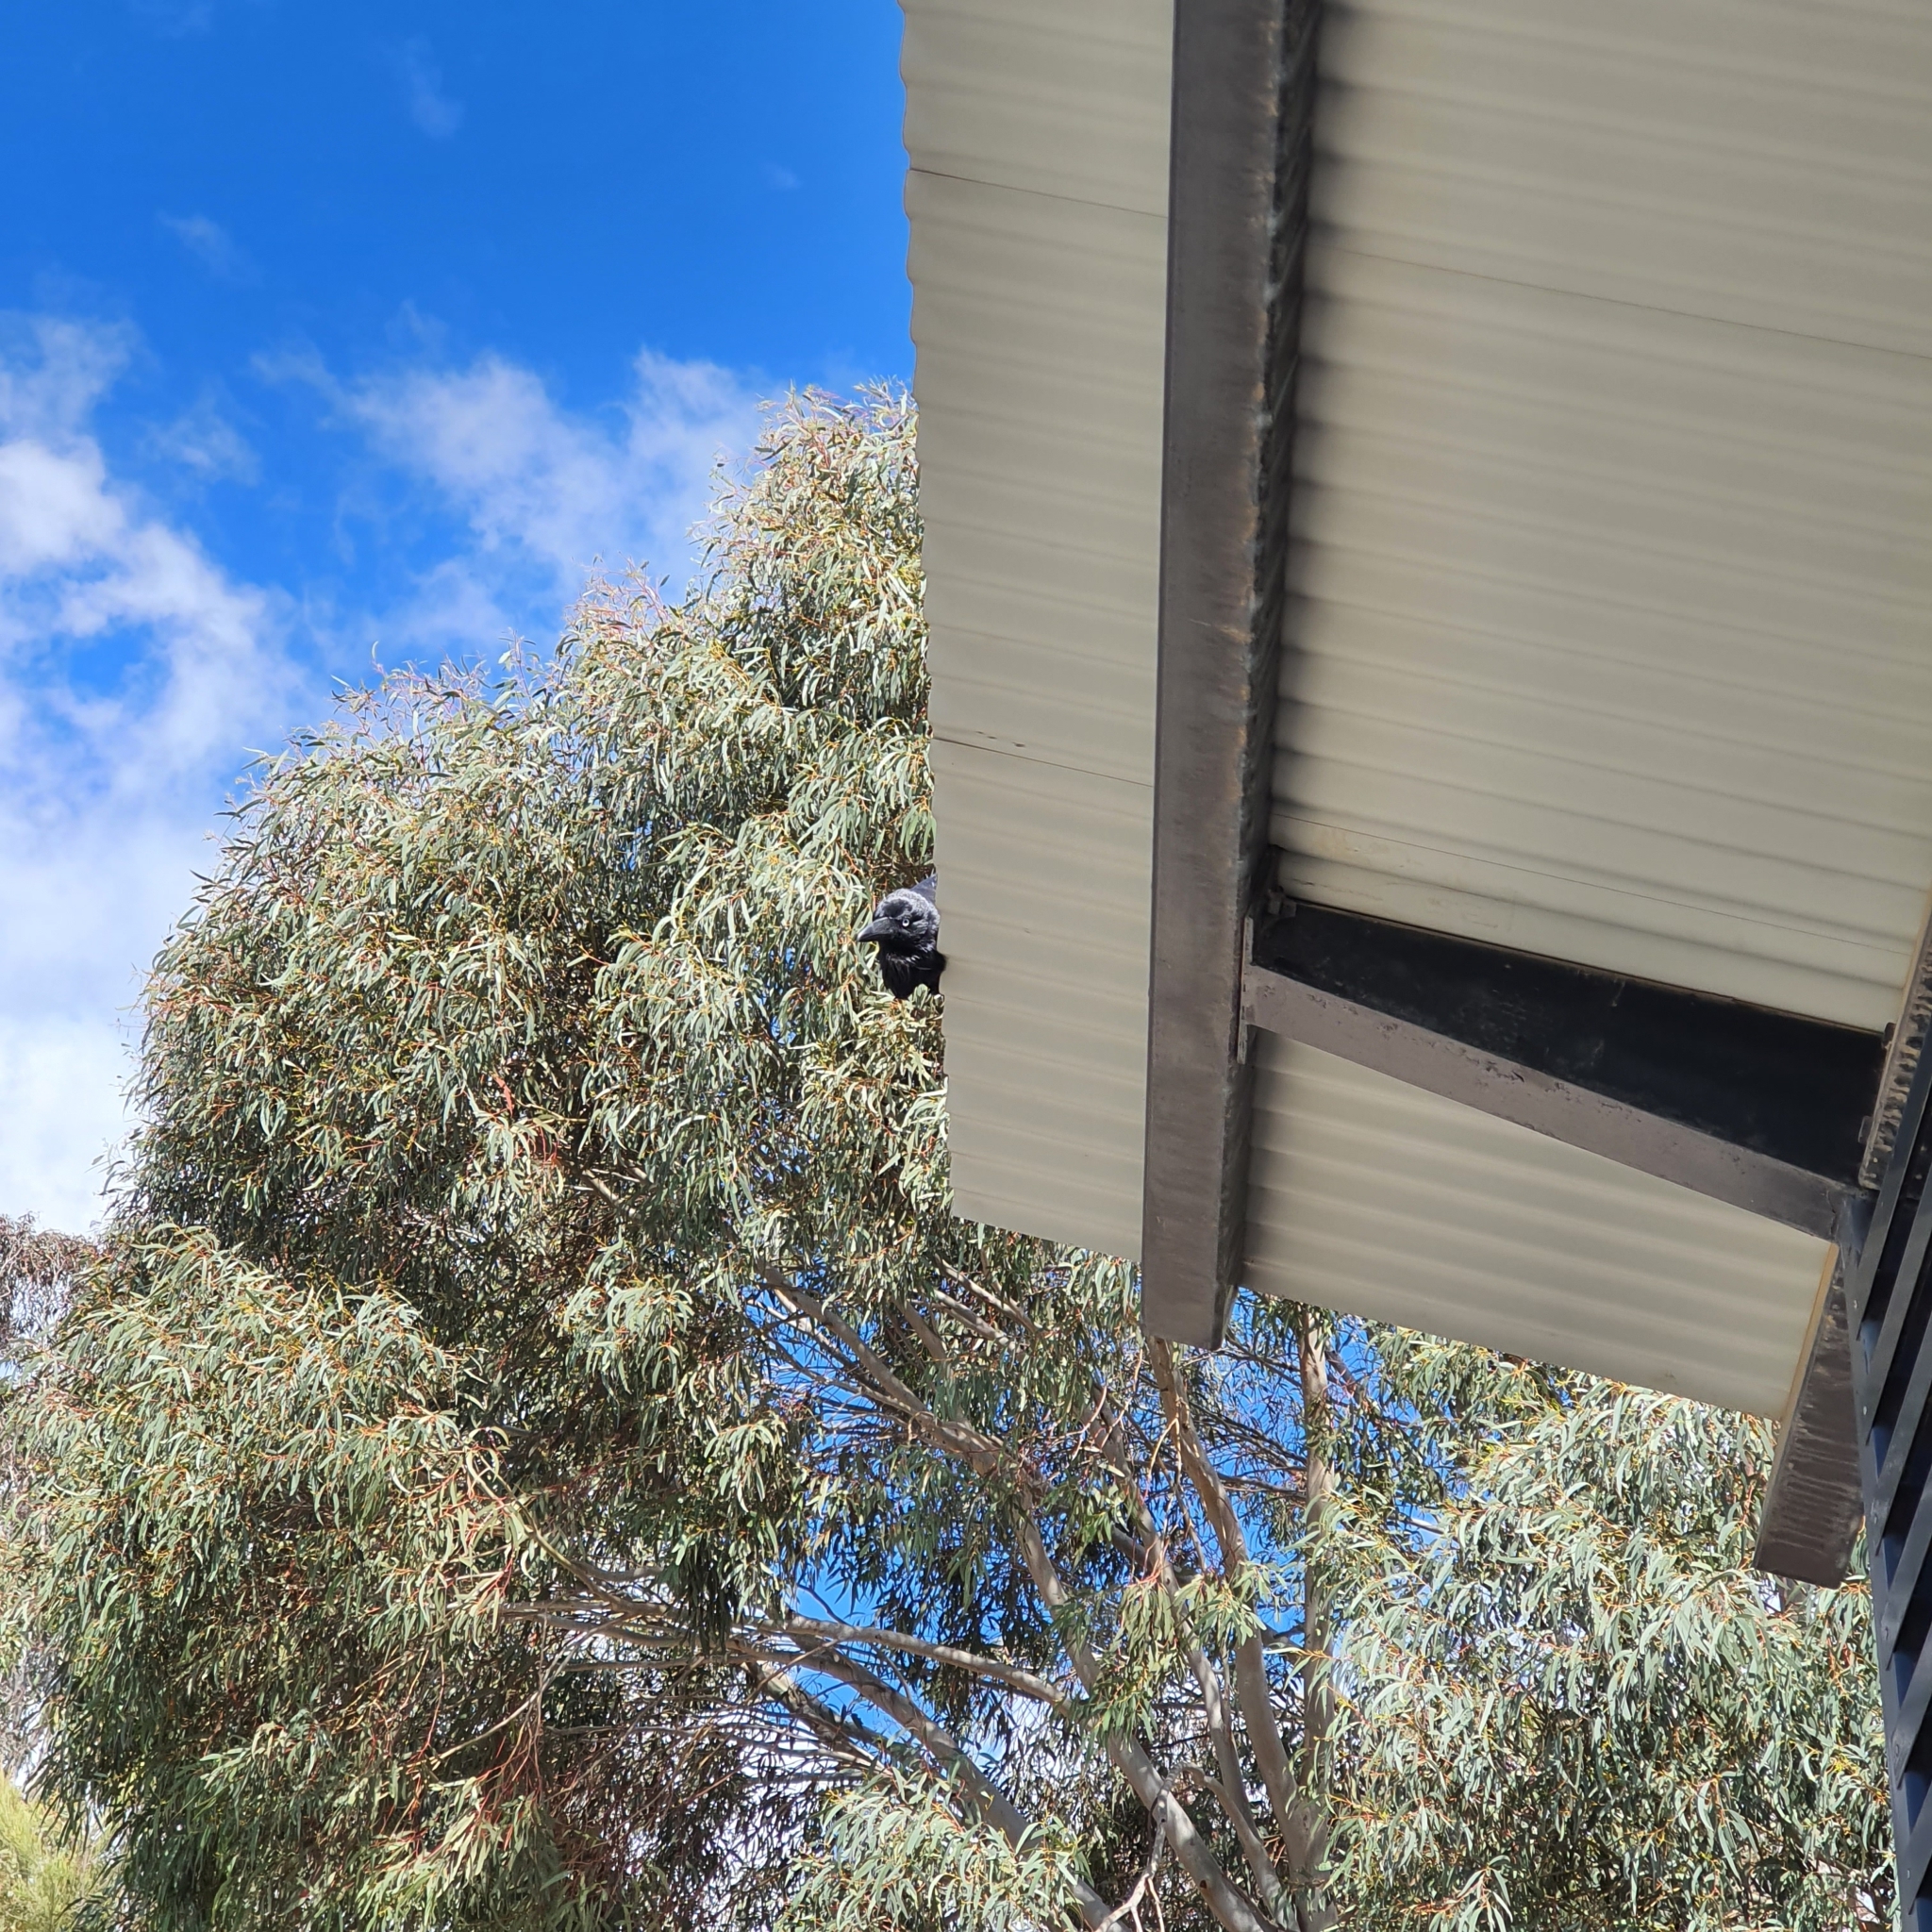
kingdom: Animalia
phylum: Chordata
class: Aves
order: Passeriformes
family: Corvidae
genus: Corvus
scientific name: Corvus coronoides
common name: Australian raven
